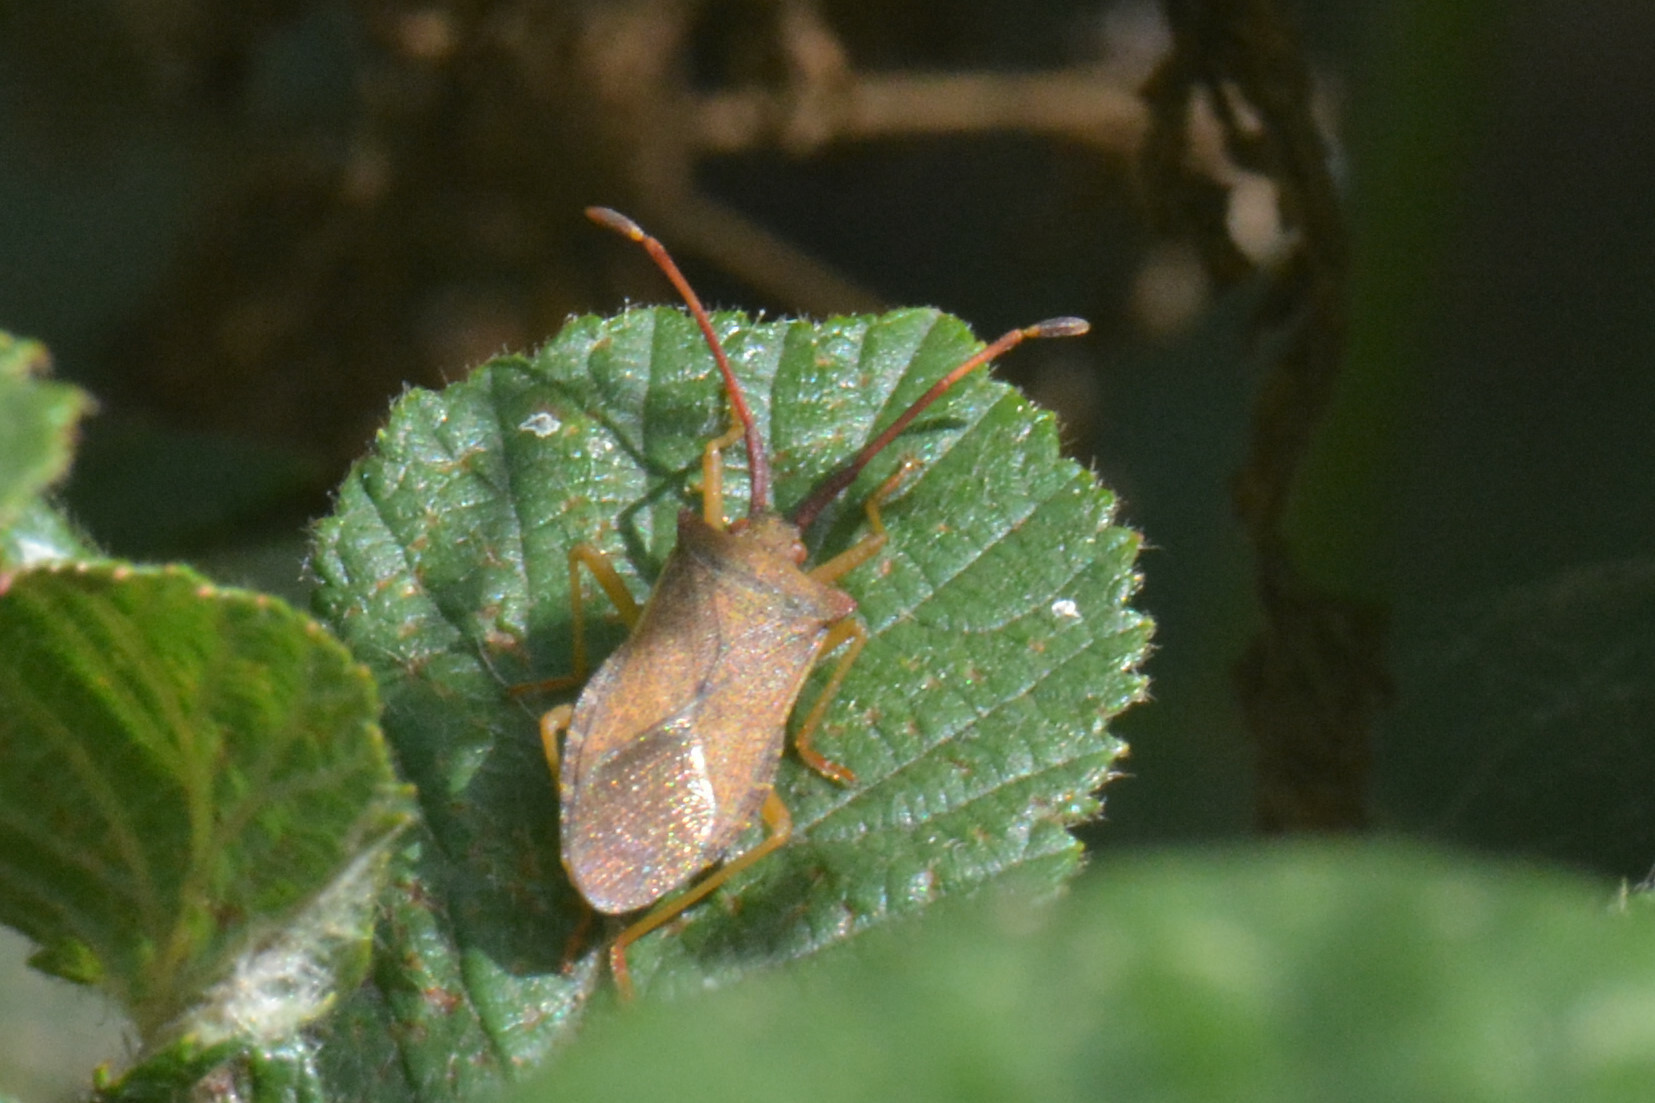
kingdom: Animalia
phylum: Arthropoda
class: Insecta
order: Hemiptera
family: Coreidae
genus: Gonocerus
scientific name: Gonocerus acuteangulatus
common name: Box bug
